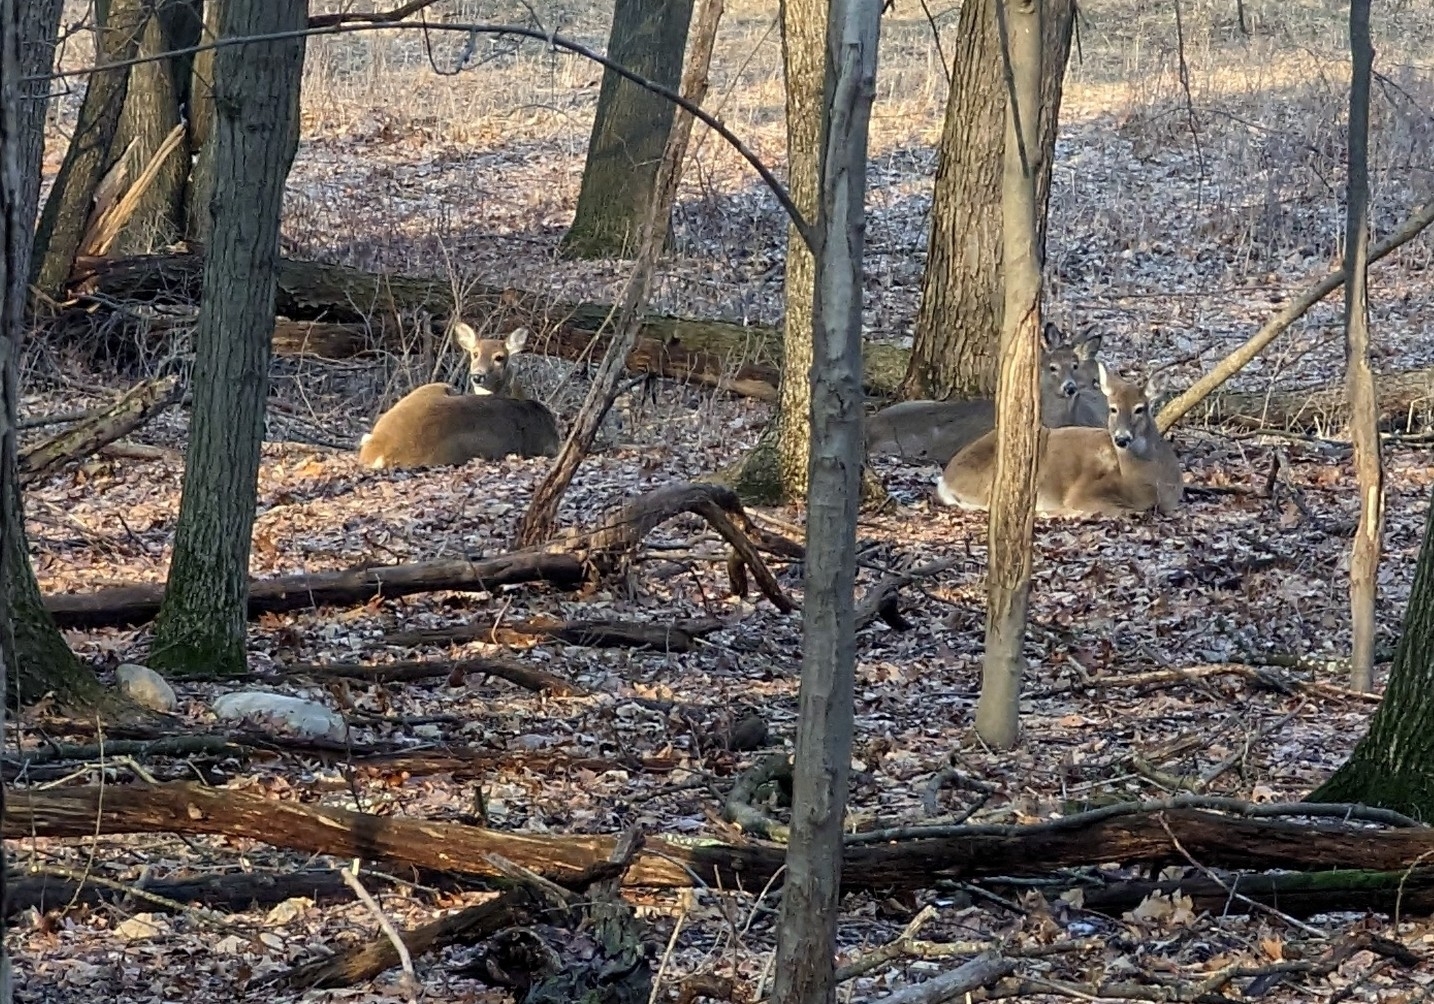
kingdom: Animalia
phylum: Chordata
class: Mammalia
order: Artiodactyla
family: Cervidae
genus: Odocoileus
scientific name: Odocoileus virginianus
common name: White-tailed deer
